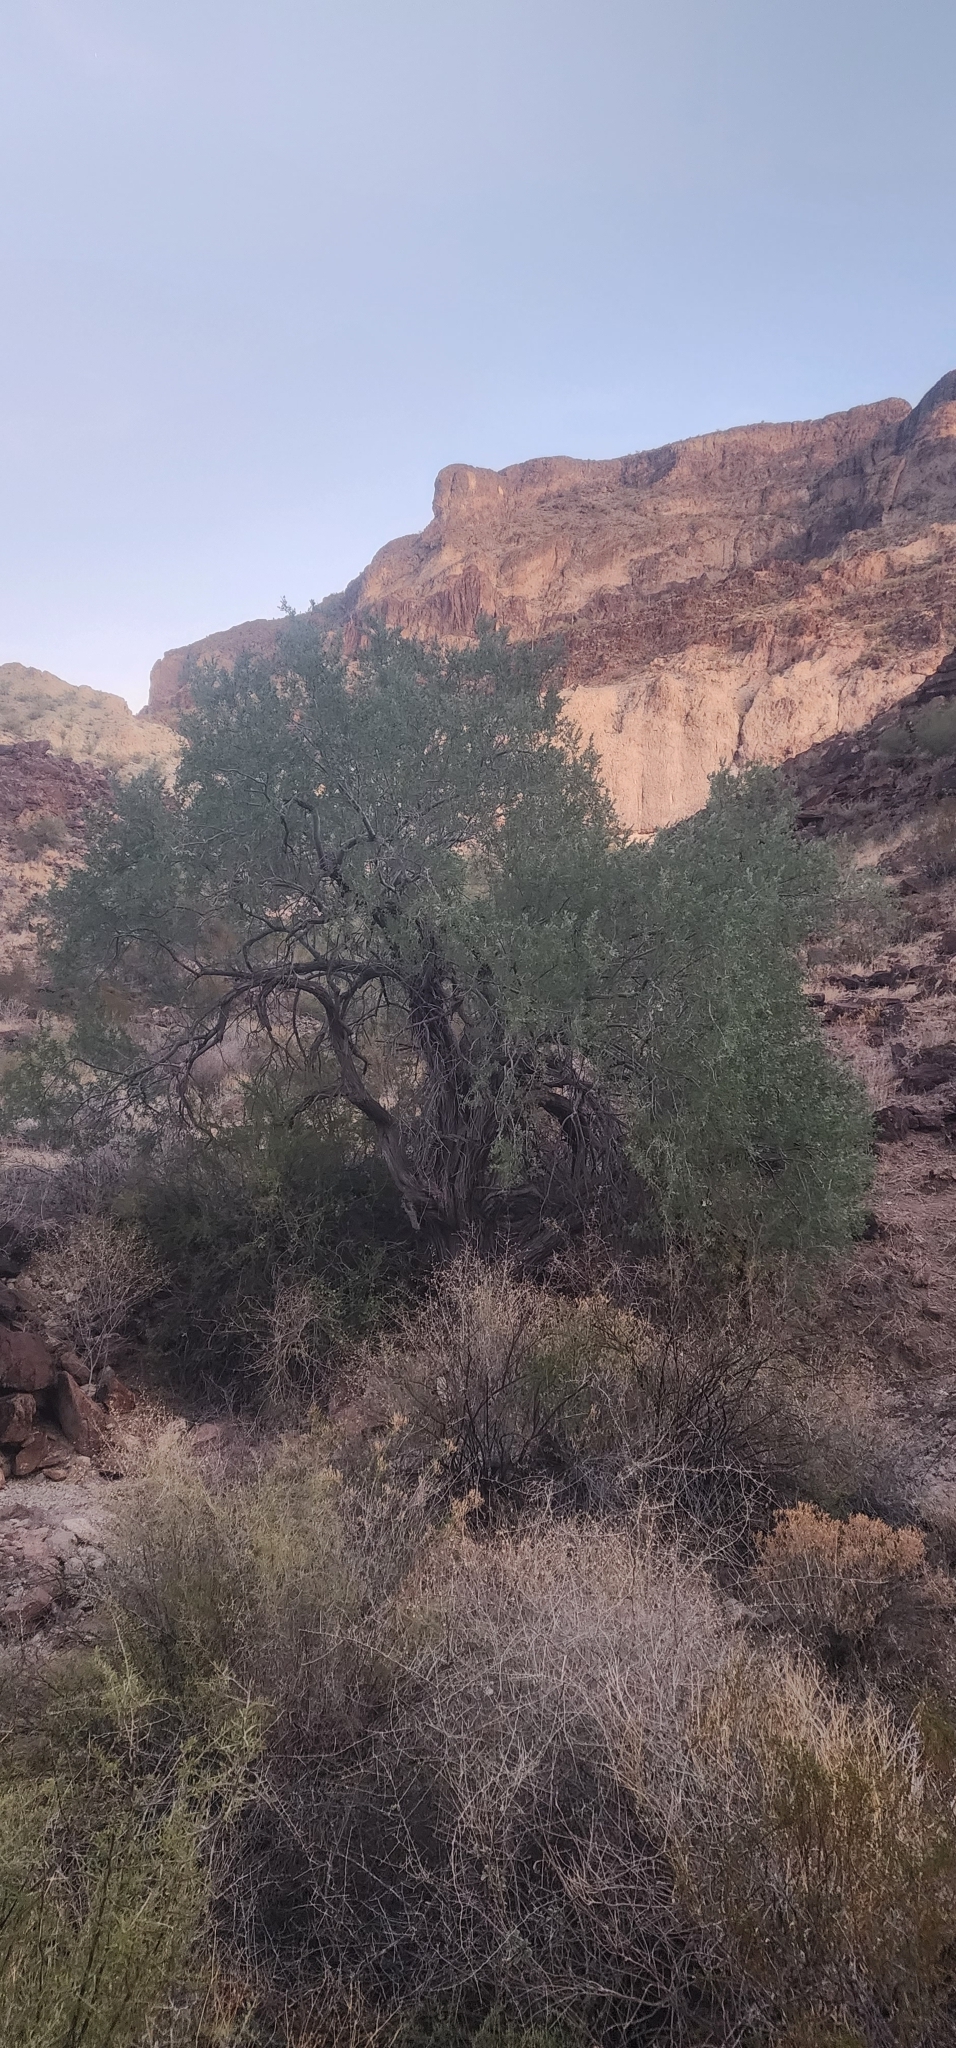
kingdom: Plantae
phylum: Tracheophyta
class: Magnoliopsida
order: Fabales
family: Fabaceae
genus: Olneya
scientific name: Olneya tesota
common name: Desert ironwood
